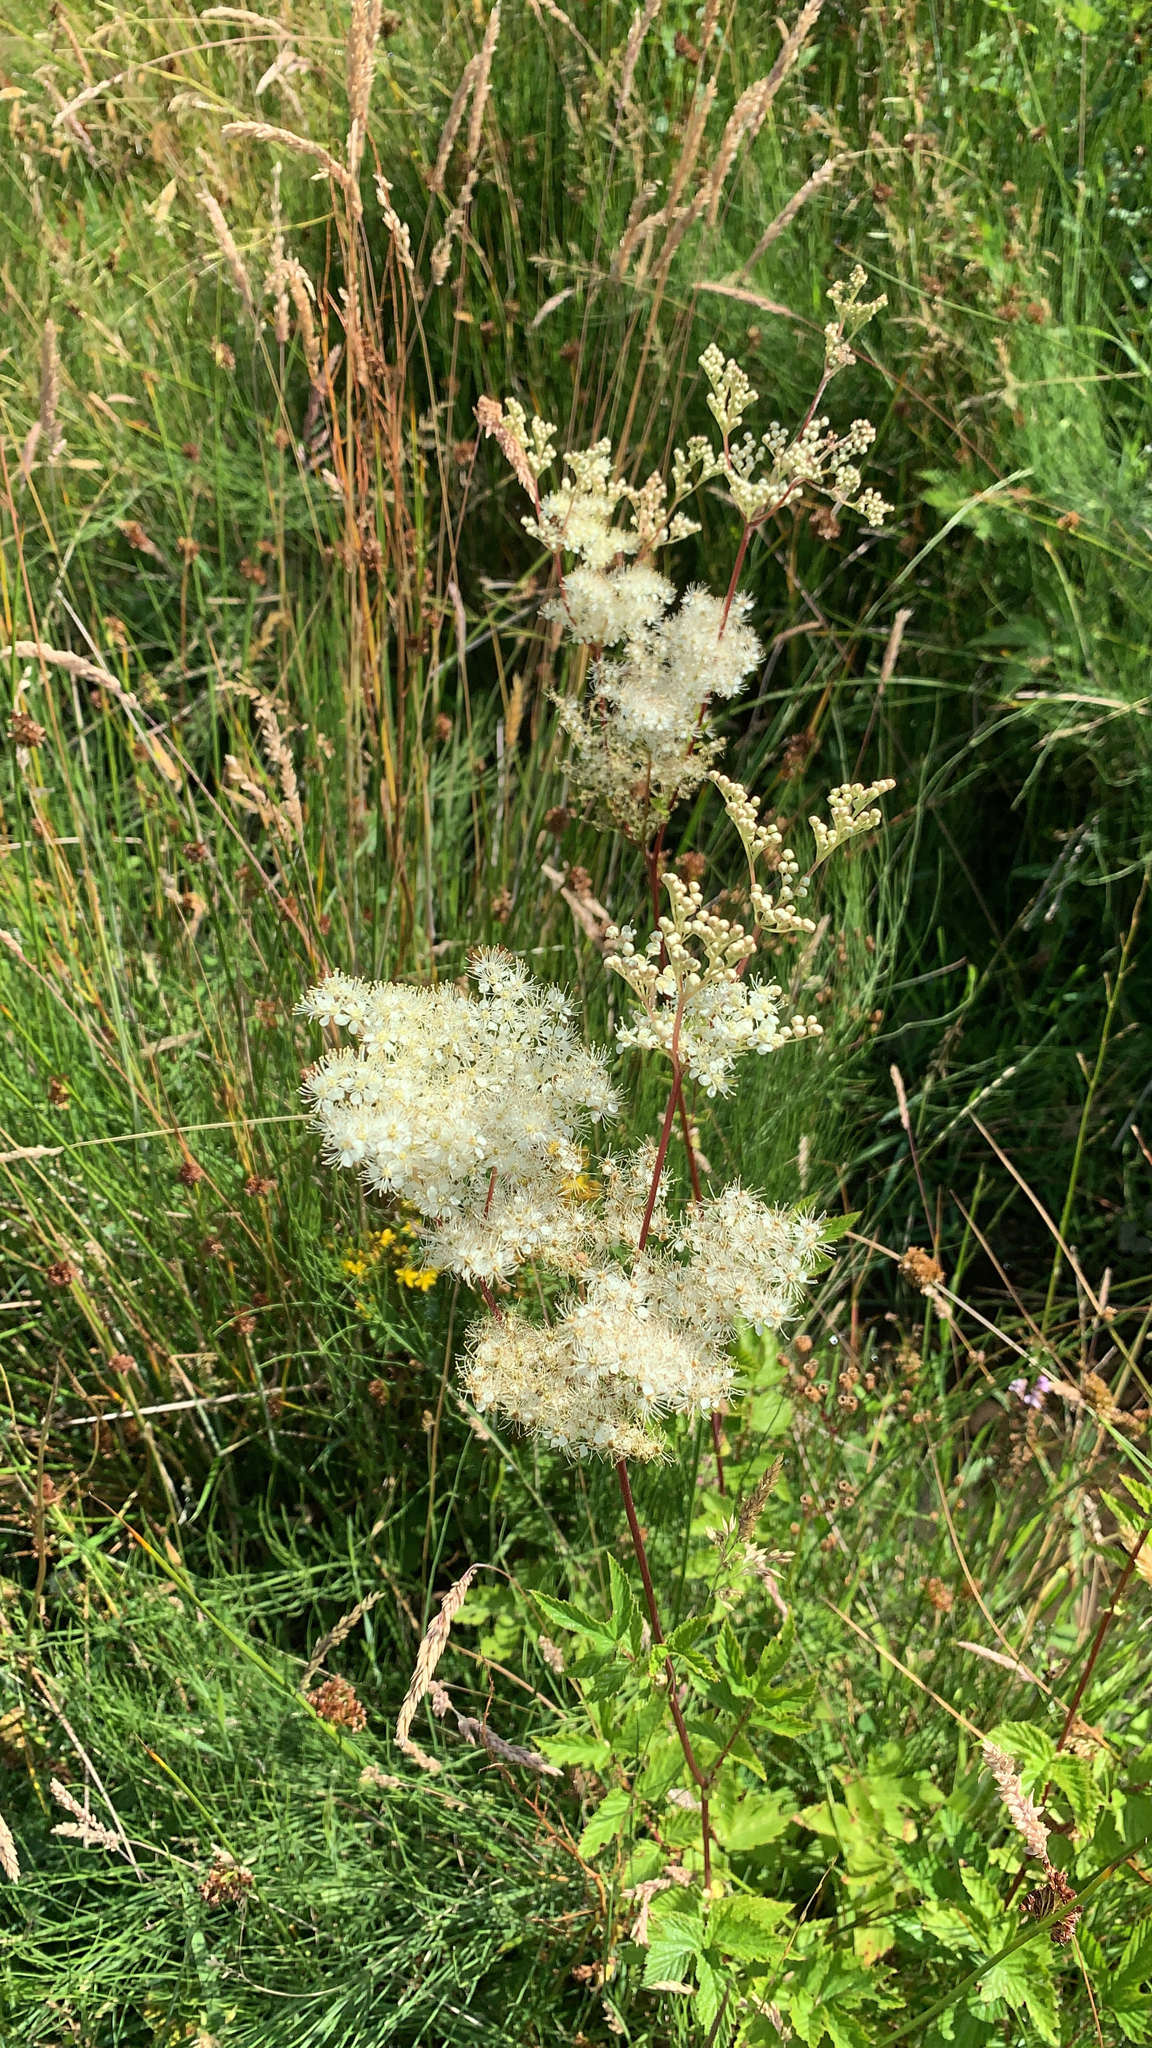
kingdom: Plantae
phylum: Tracheophyta
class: Magnoliopsida
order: Rosales
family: Rosaceae
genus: Filipendula
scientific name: Filipendula ulmaria
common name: Meadowsweet
